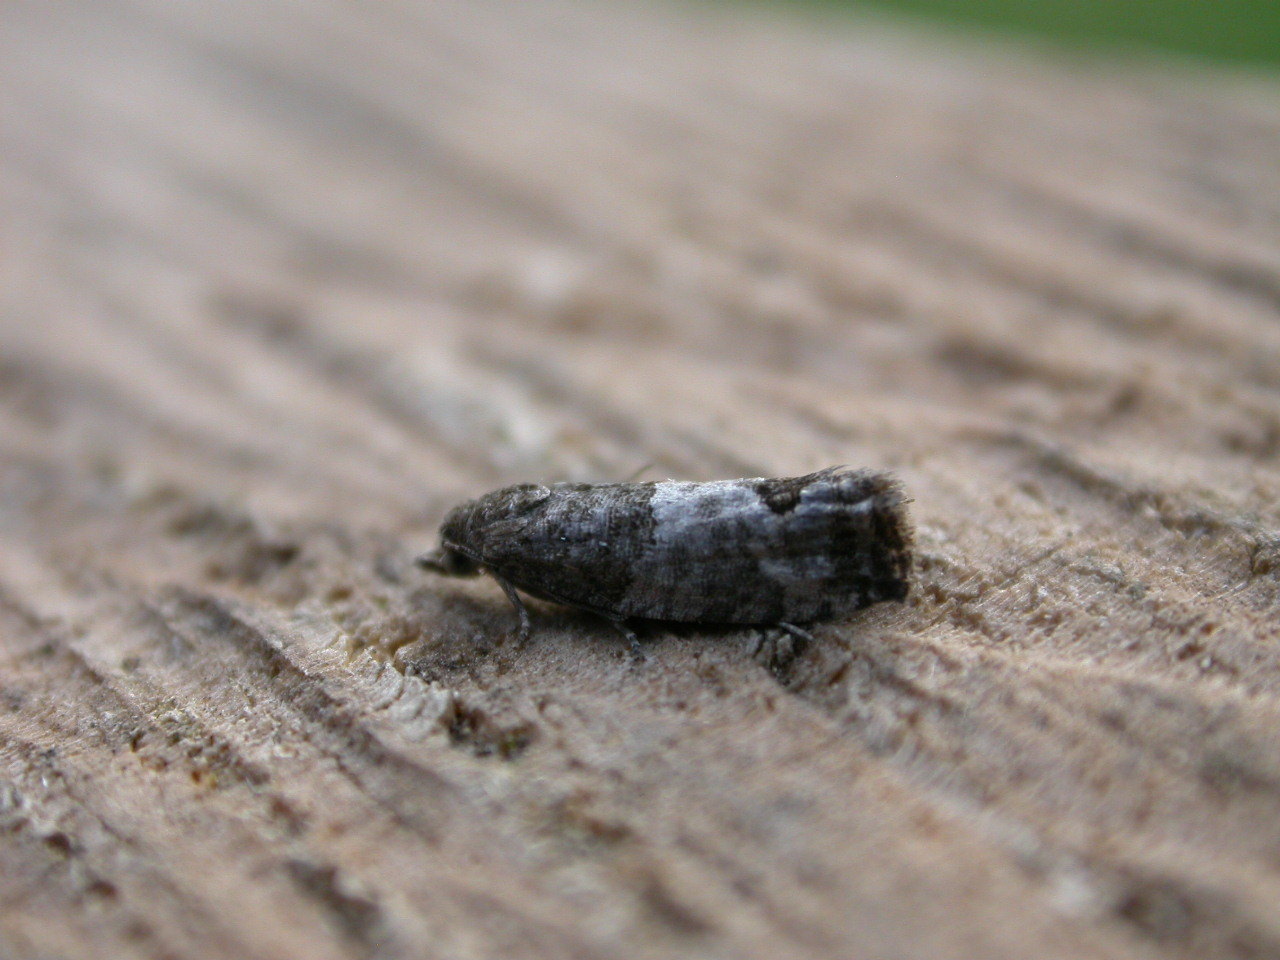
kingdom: Animalia
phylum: Arthropoda
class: Insecta
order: Lepidoptera
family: Tortricidae
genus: Spilonota
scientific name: Spilonota ocellana
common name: Bud moth
